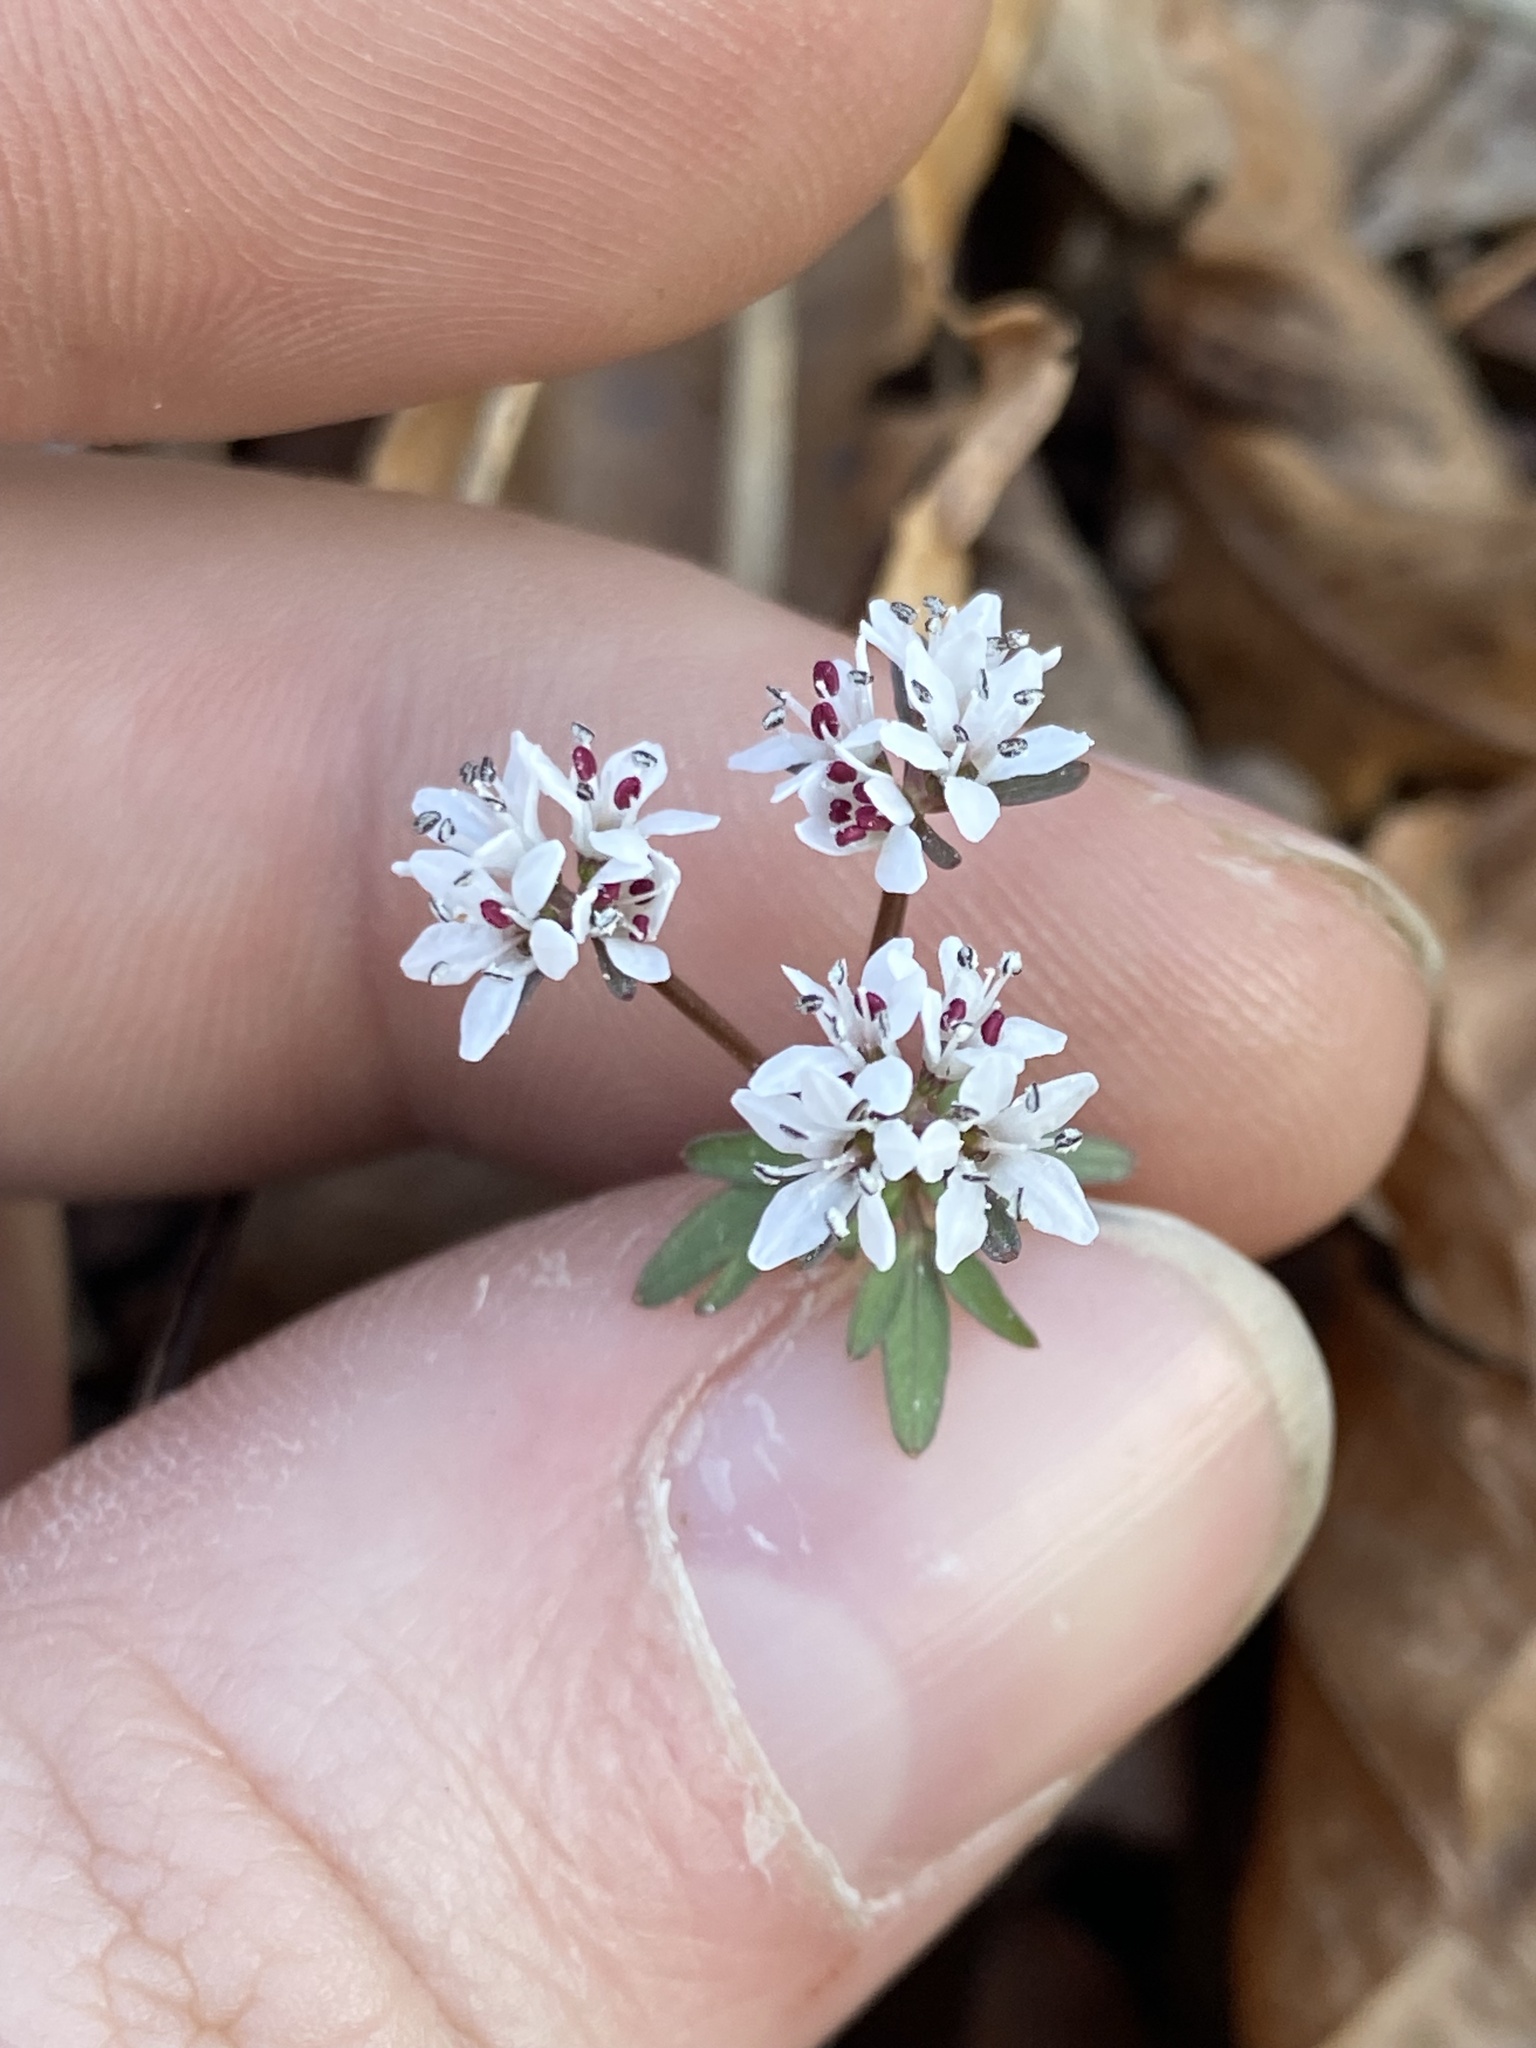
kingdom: Plantae
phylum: Tracheophyta
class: Magnoliopsida
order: Apiales
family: Apiaceae
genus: Erigenia
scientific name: Erigenia bulbosa
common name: Pepper-and-salt
